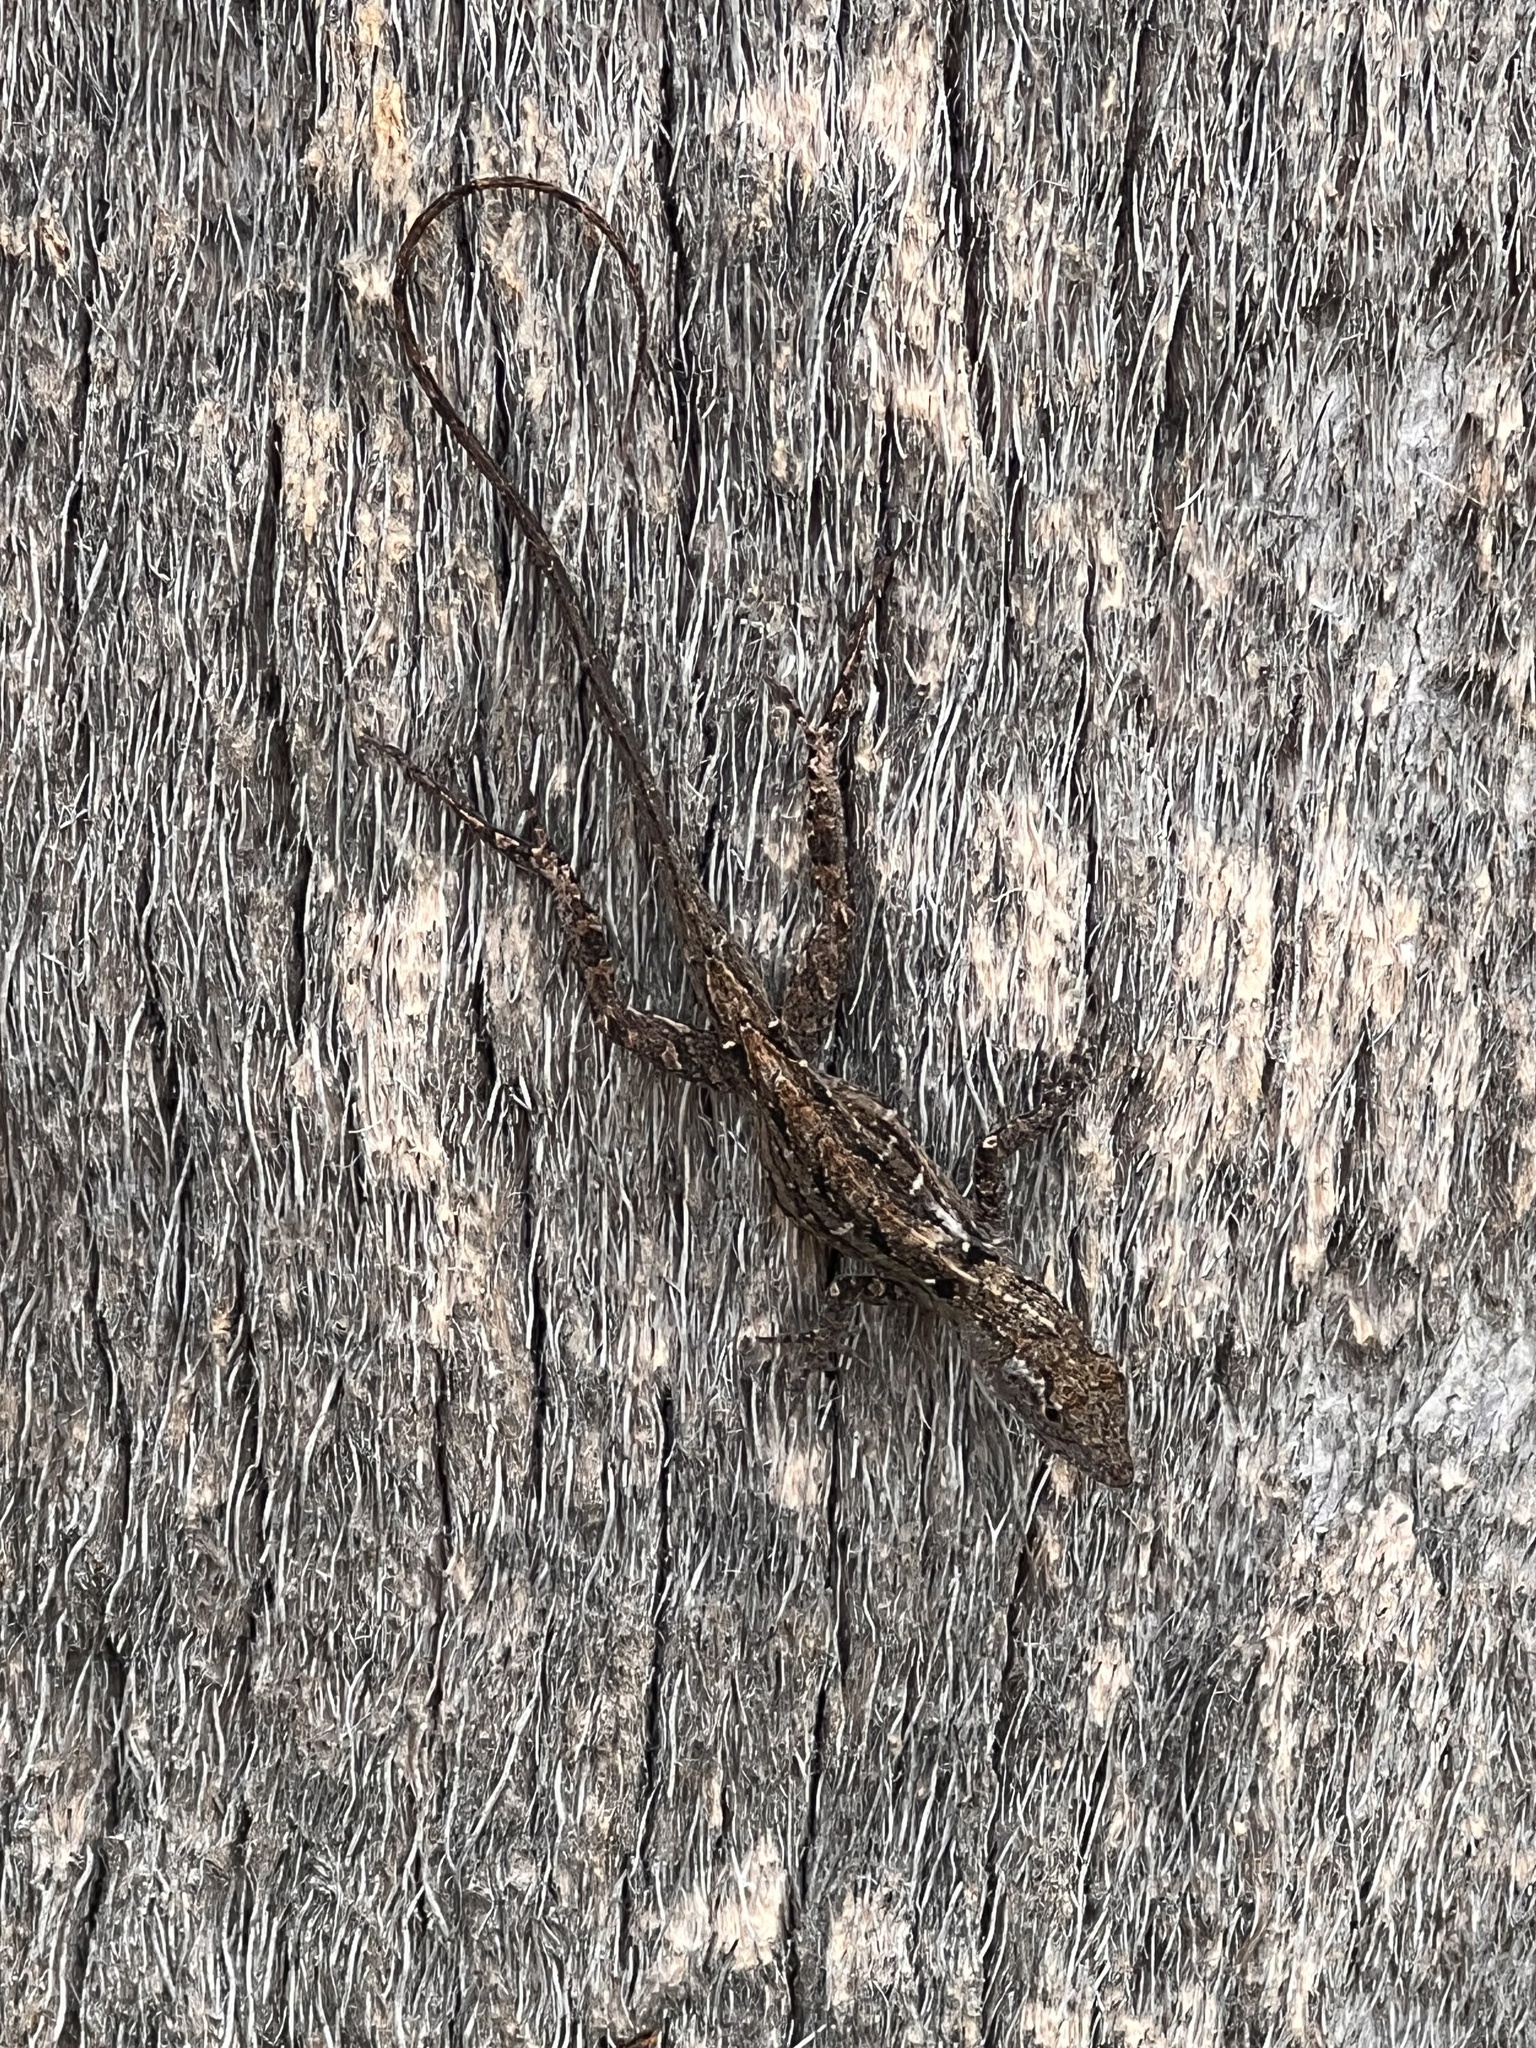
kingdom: Animalia
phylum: Chordata
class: Squamata
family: Dactyloidae
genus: Anolis
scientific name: Anolis sagrei
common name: Brown anole
